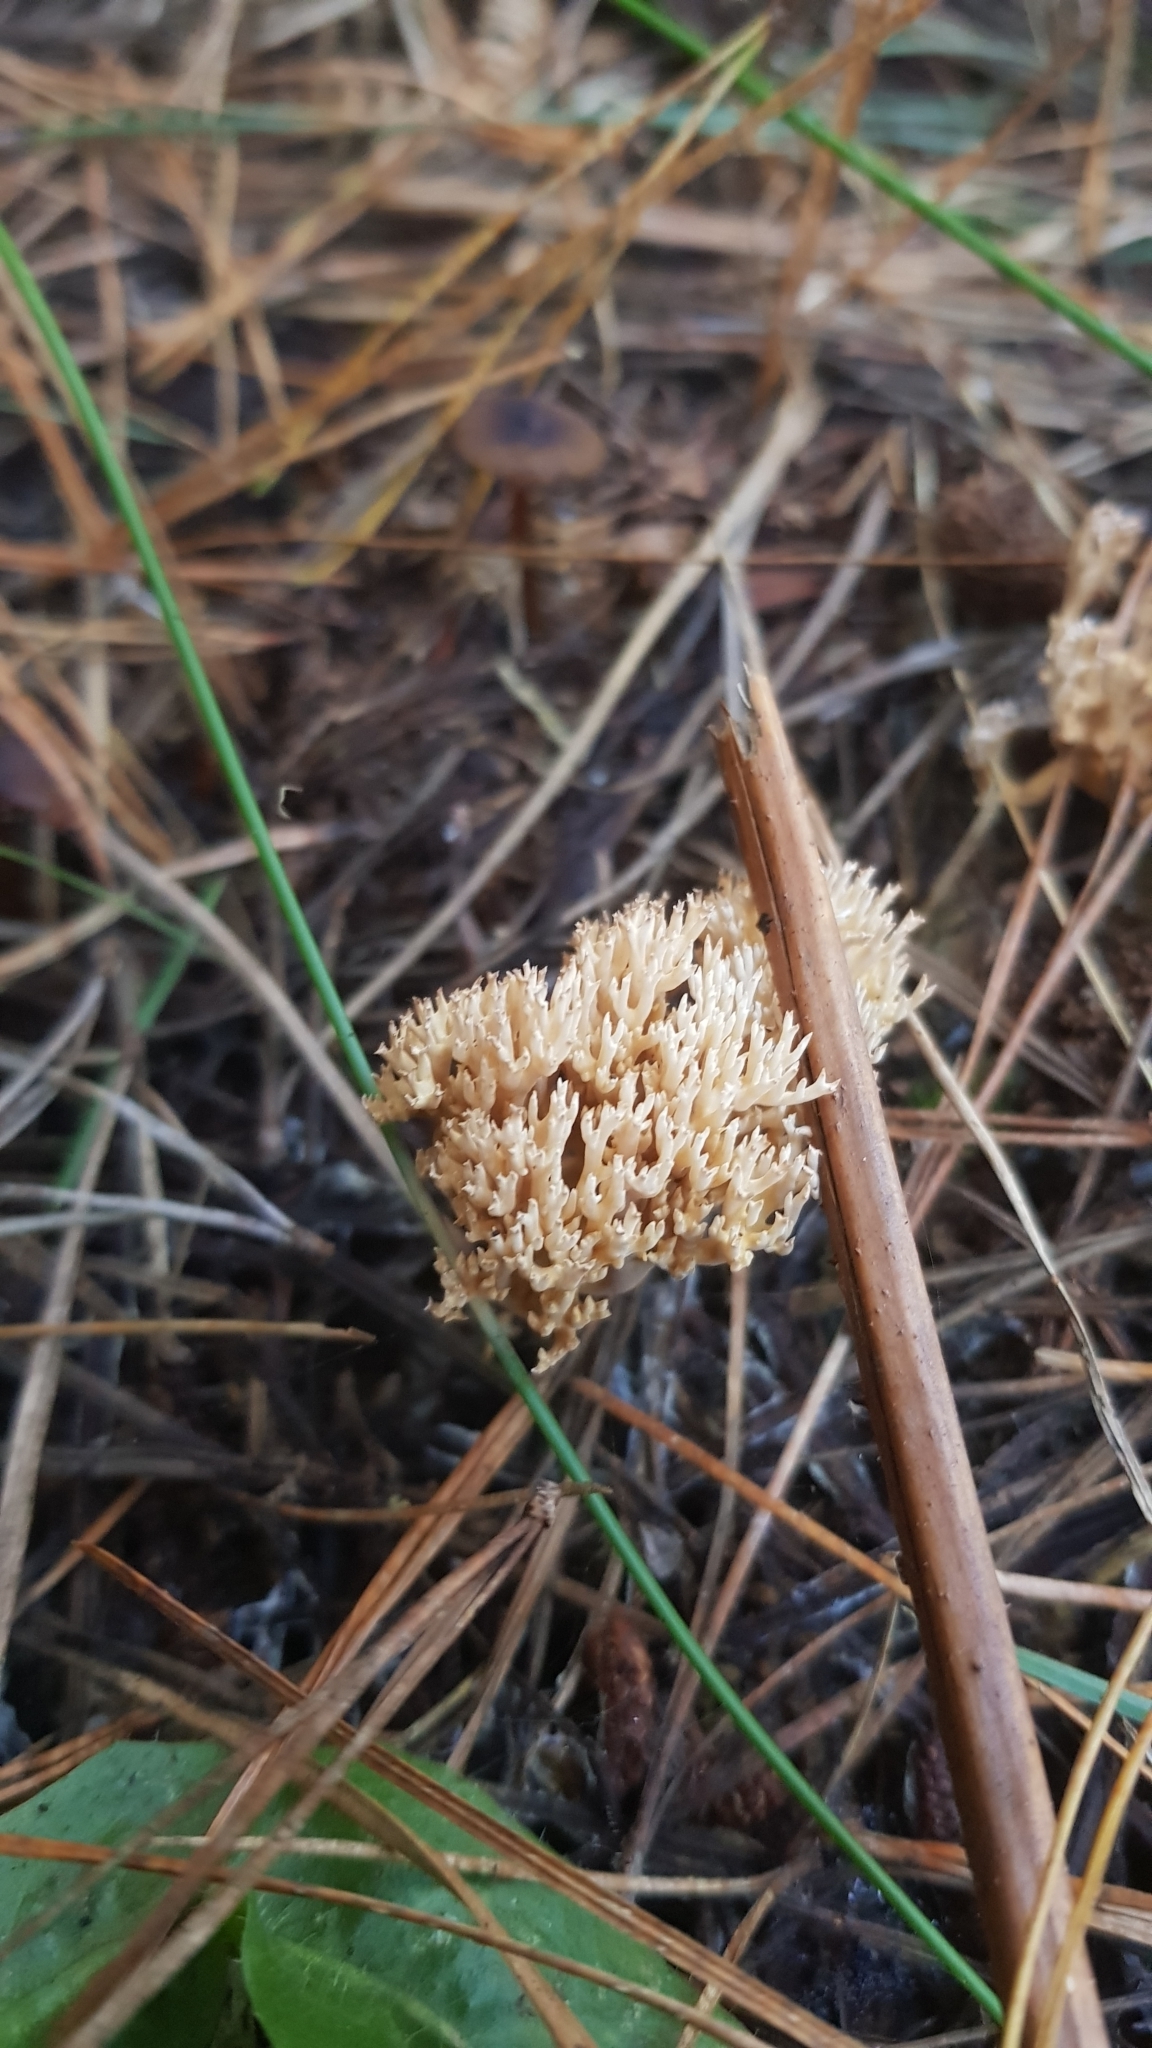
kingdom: Fungi
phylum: Basidiomycota
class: Agaricomycetes
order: Gomphales
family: Gomphaceae
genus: Ramaria
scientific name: Ramaria filicicola
